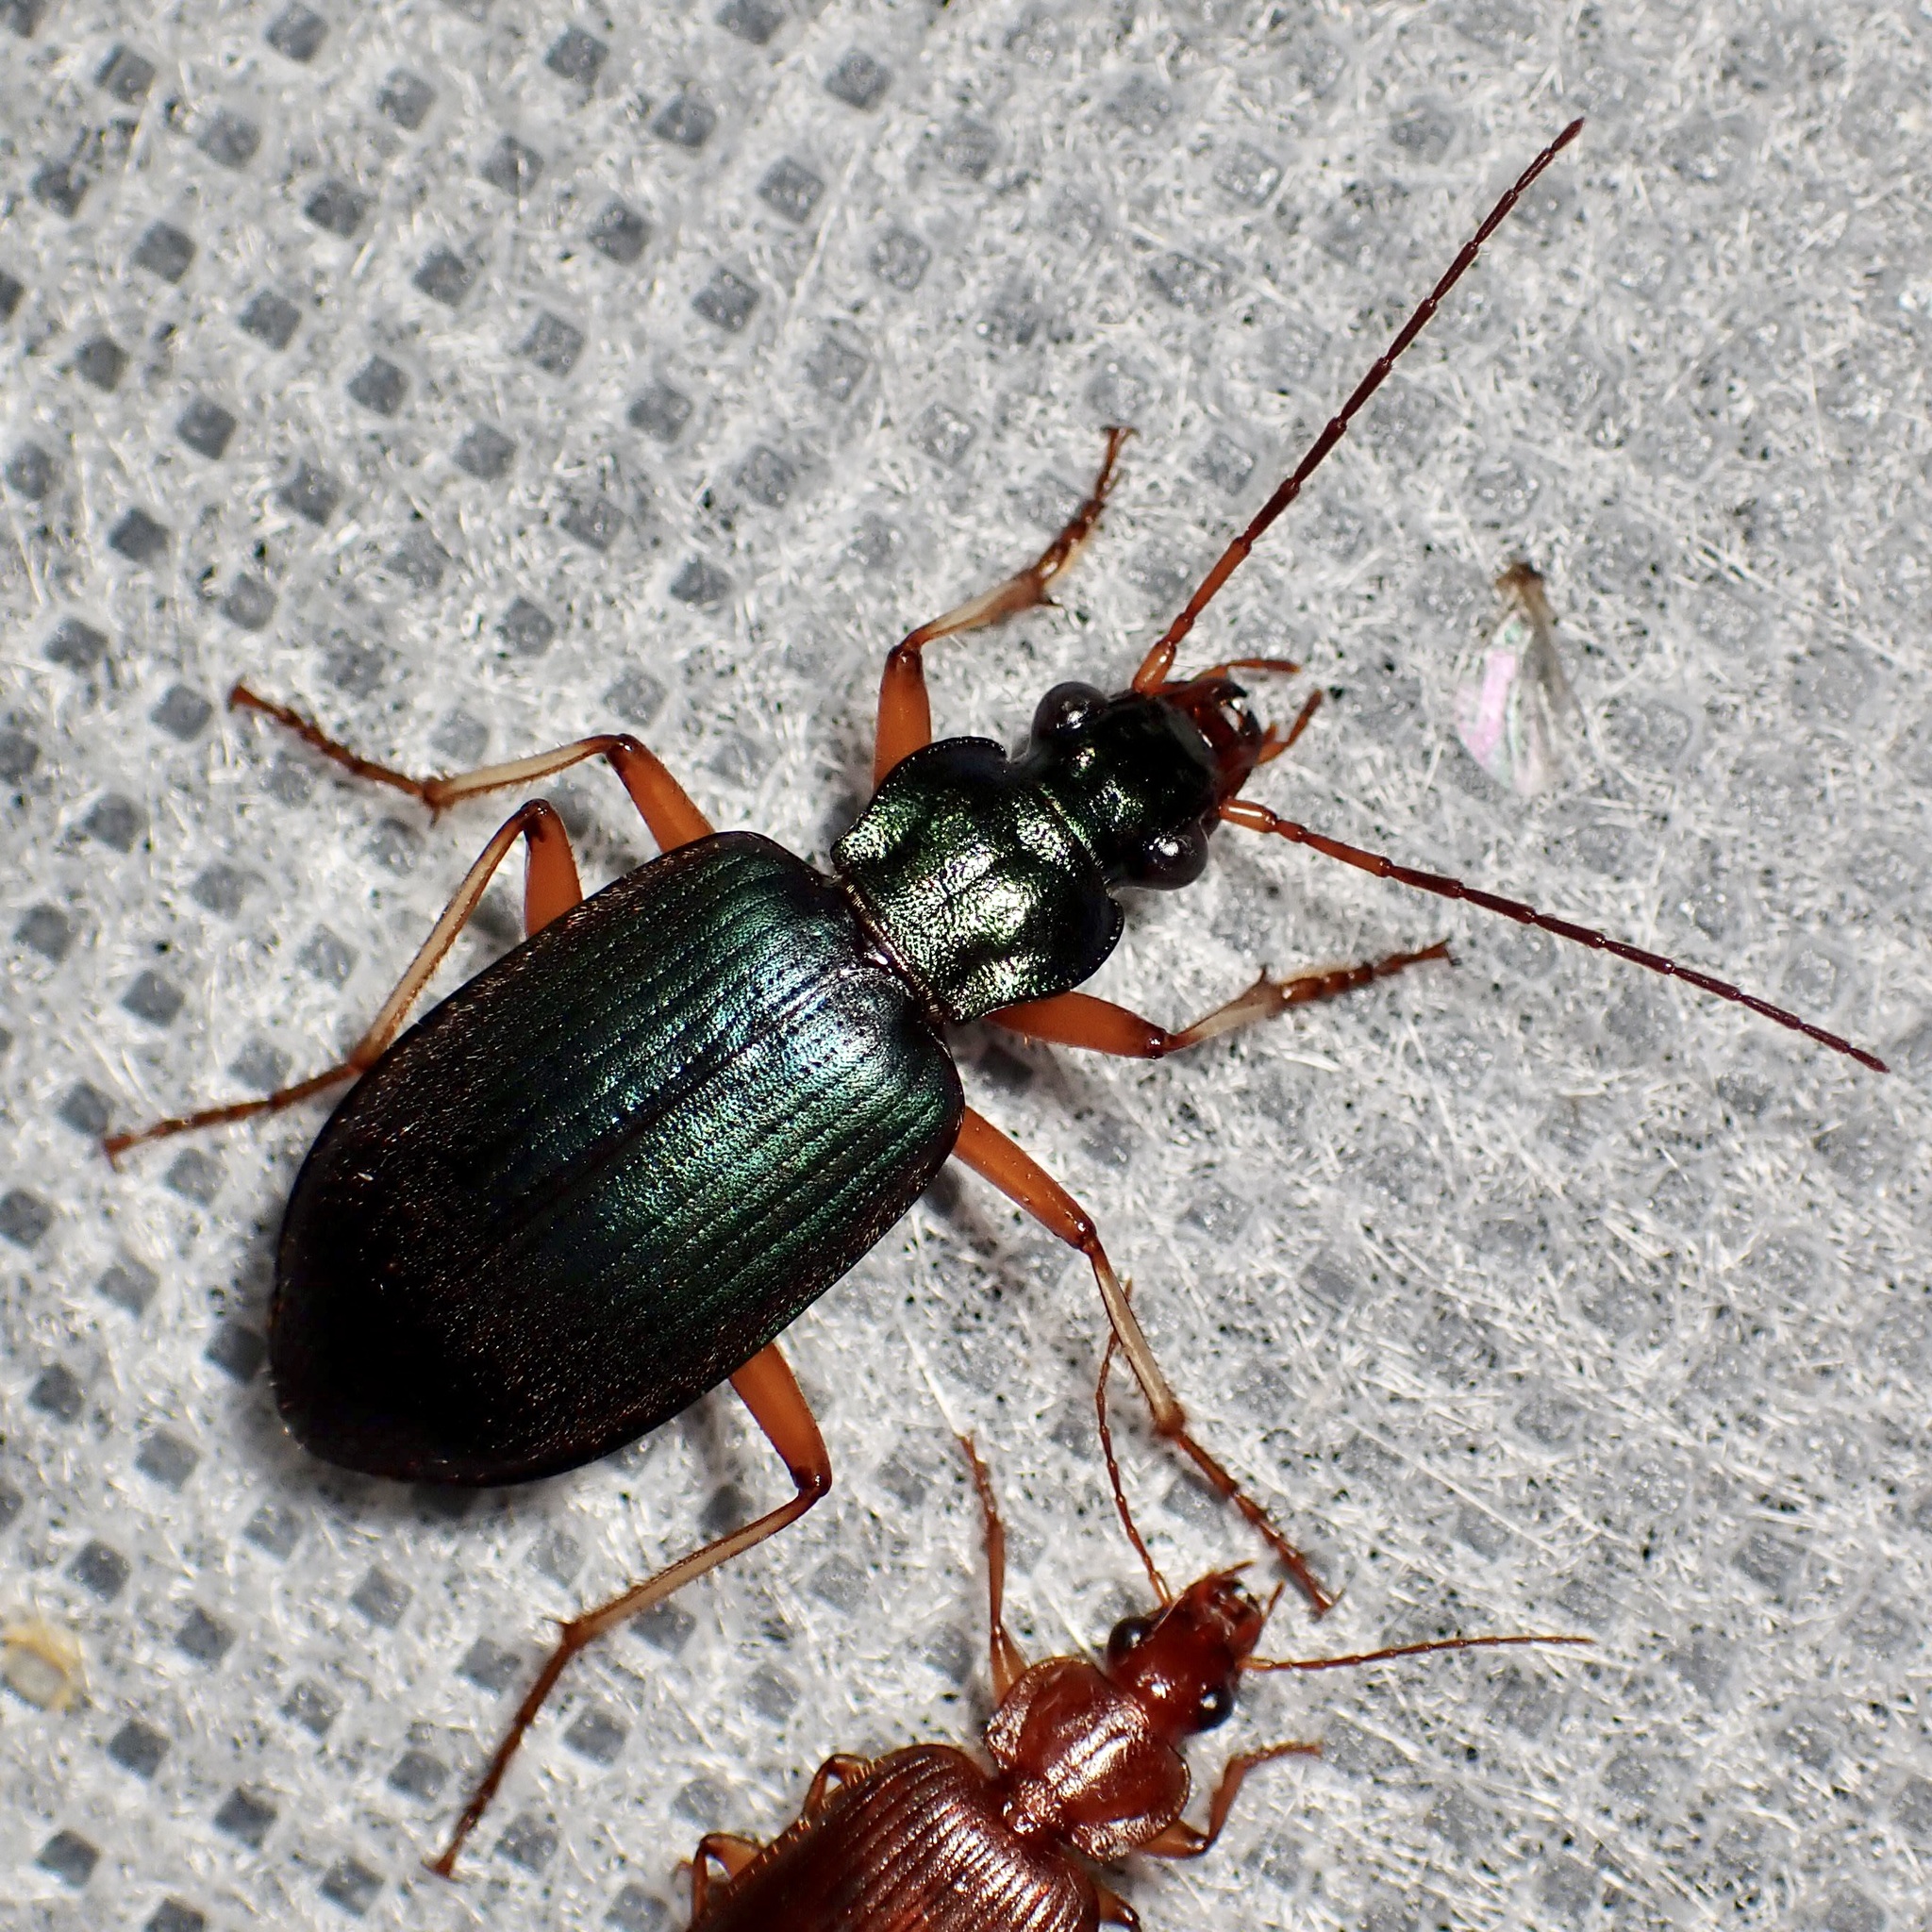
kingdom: Animalia
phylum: Arthropoda
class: Insecta
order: Coleoptera
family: Carabidae
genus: Chlaenius
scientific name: Chlaenius purpureus
